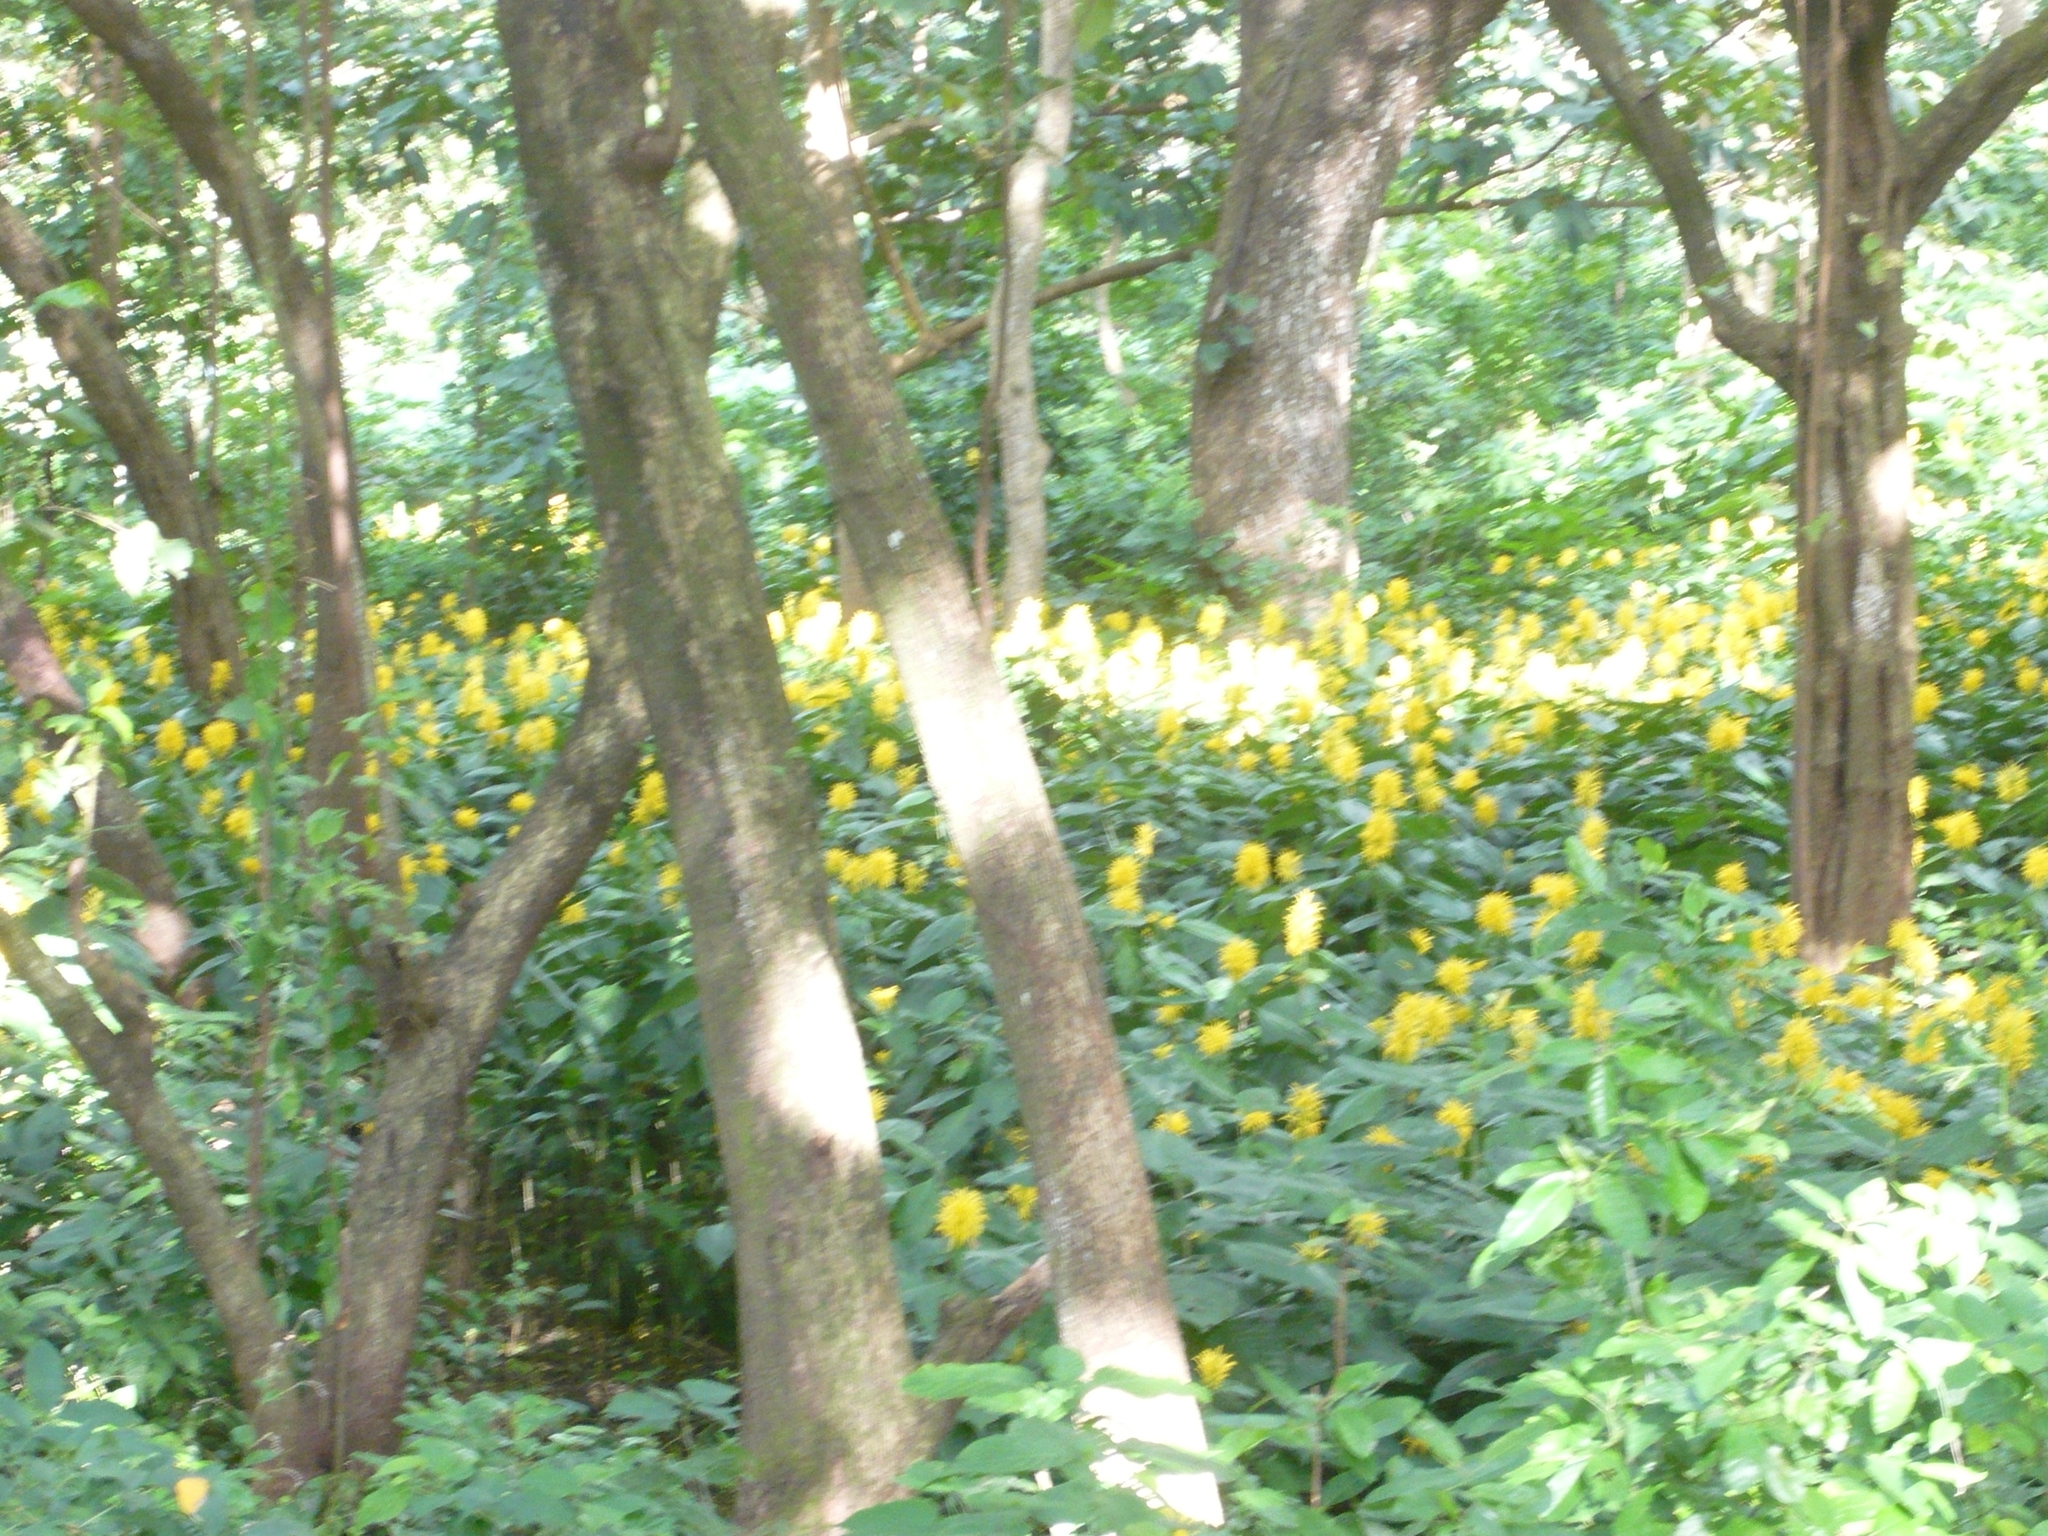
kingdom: Plantae
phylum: Tracheophyta
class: Magnoliopsida
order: Lamiales
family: Acanthaceae
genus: Justicia
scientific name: Justicia aurea
